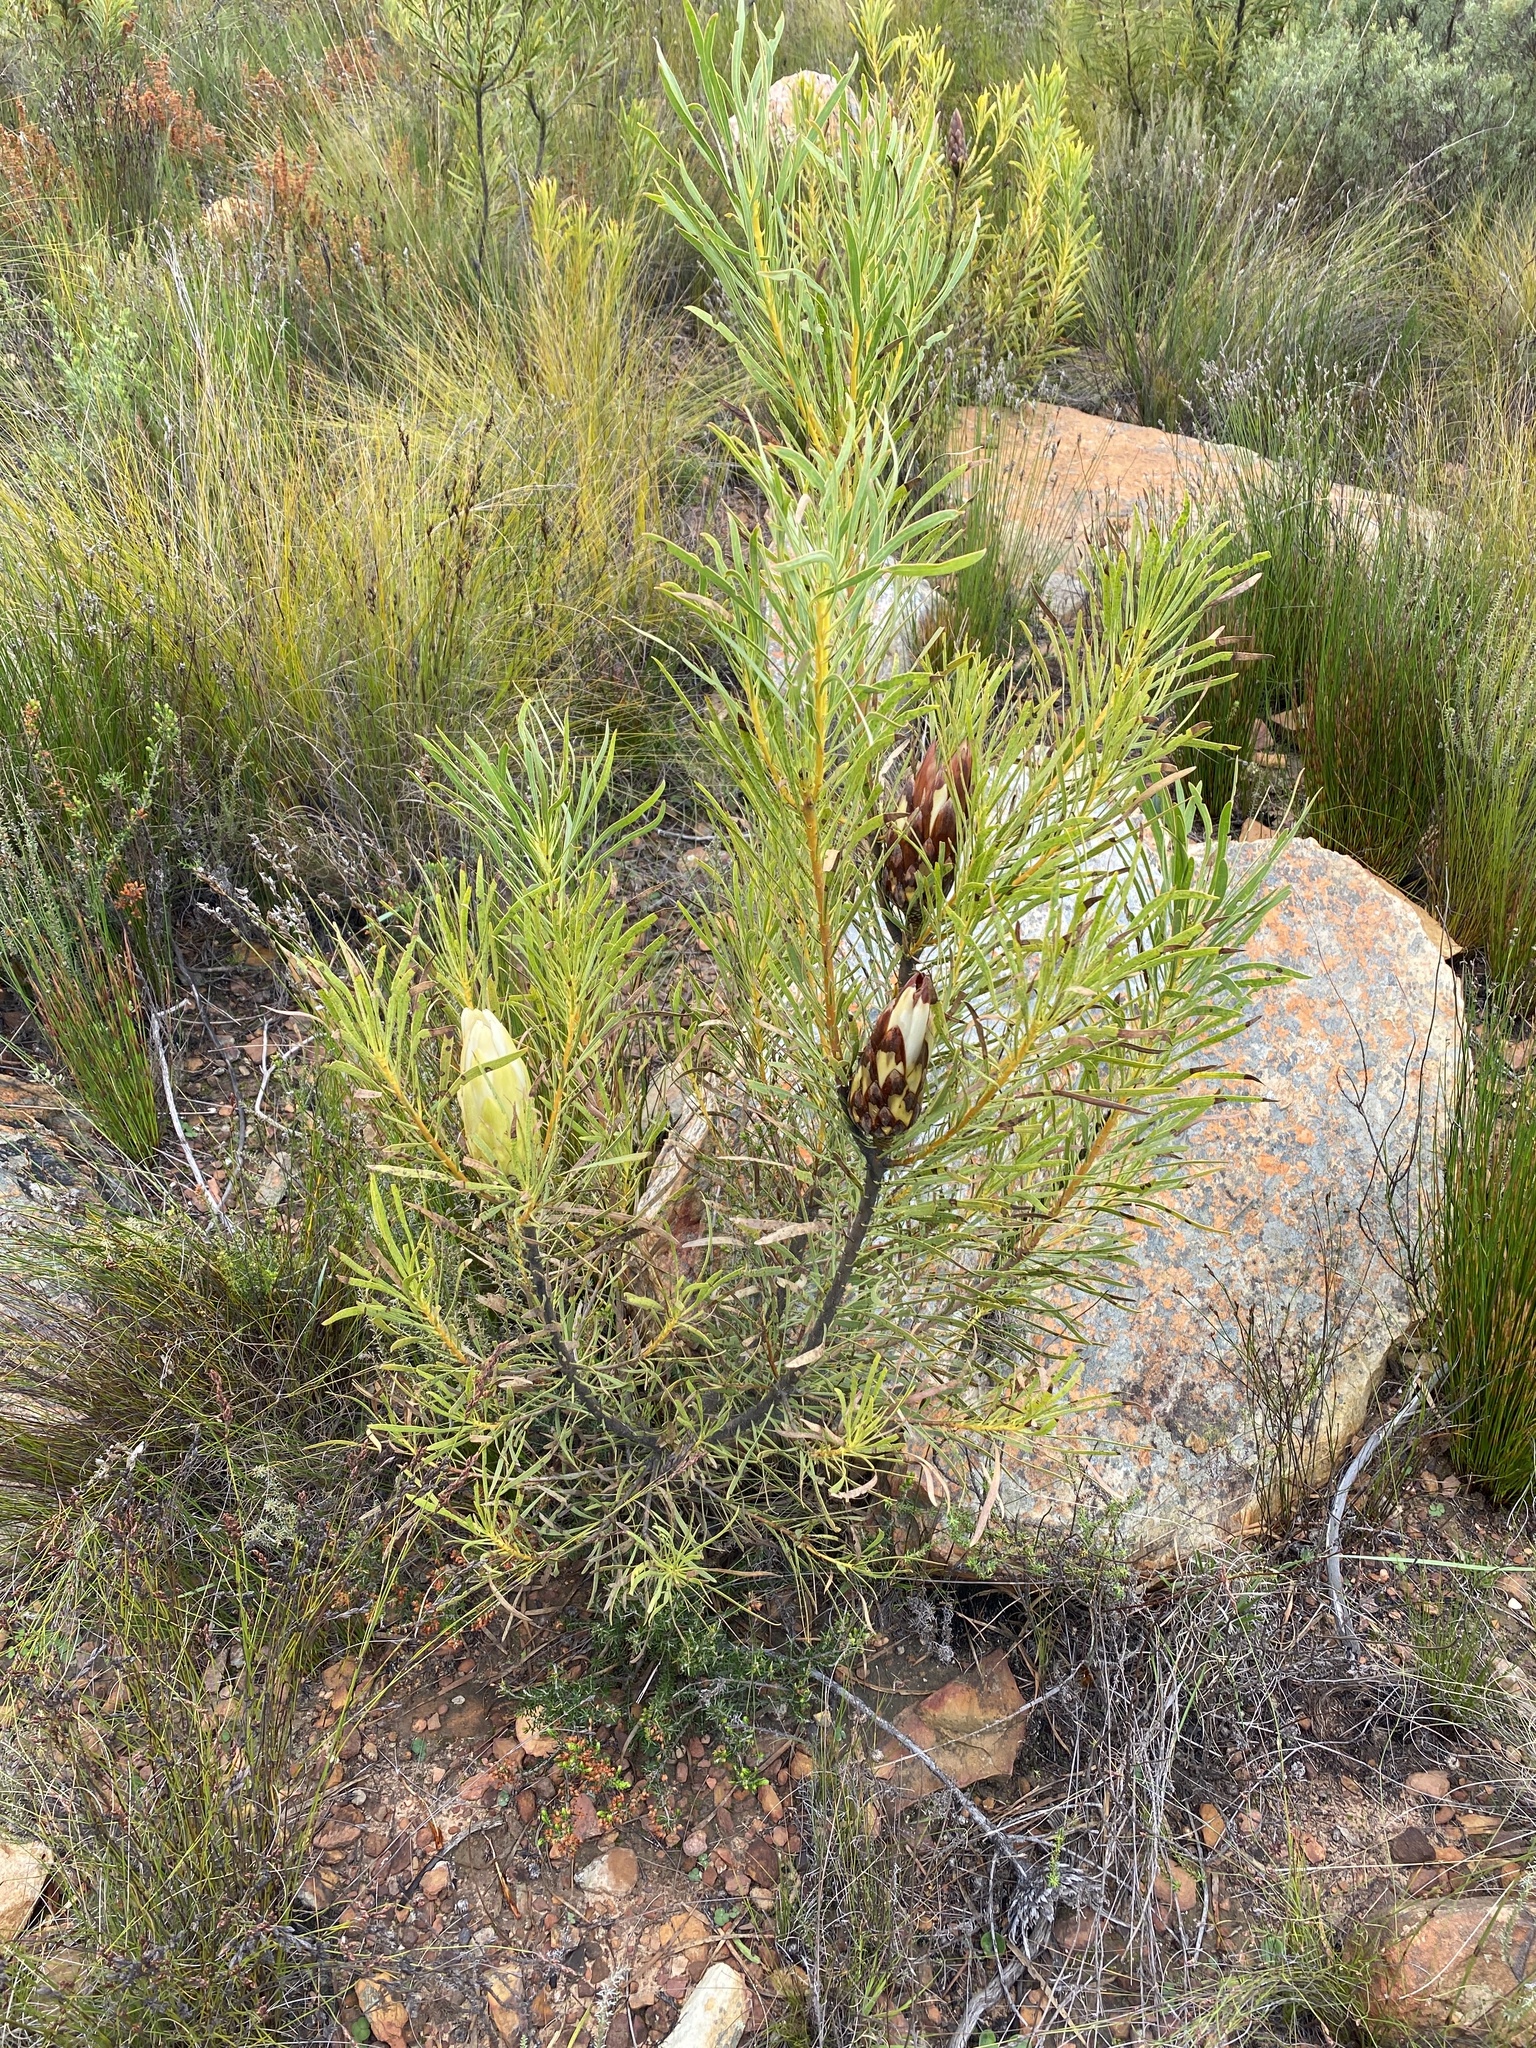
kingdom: Plantae
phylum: Tracheophyta
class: Magnoliopsida
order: Proteales
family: Proteaceae
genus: Protea
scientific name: Protea repens
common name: Sugarbush
